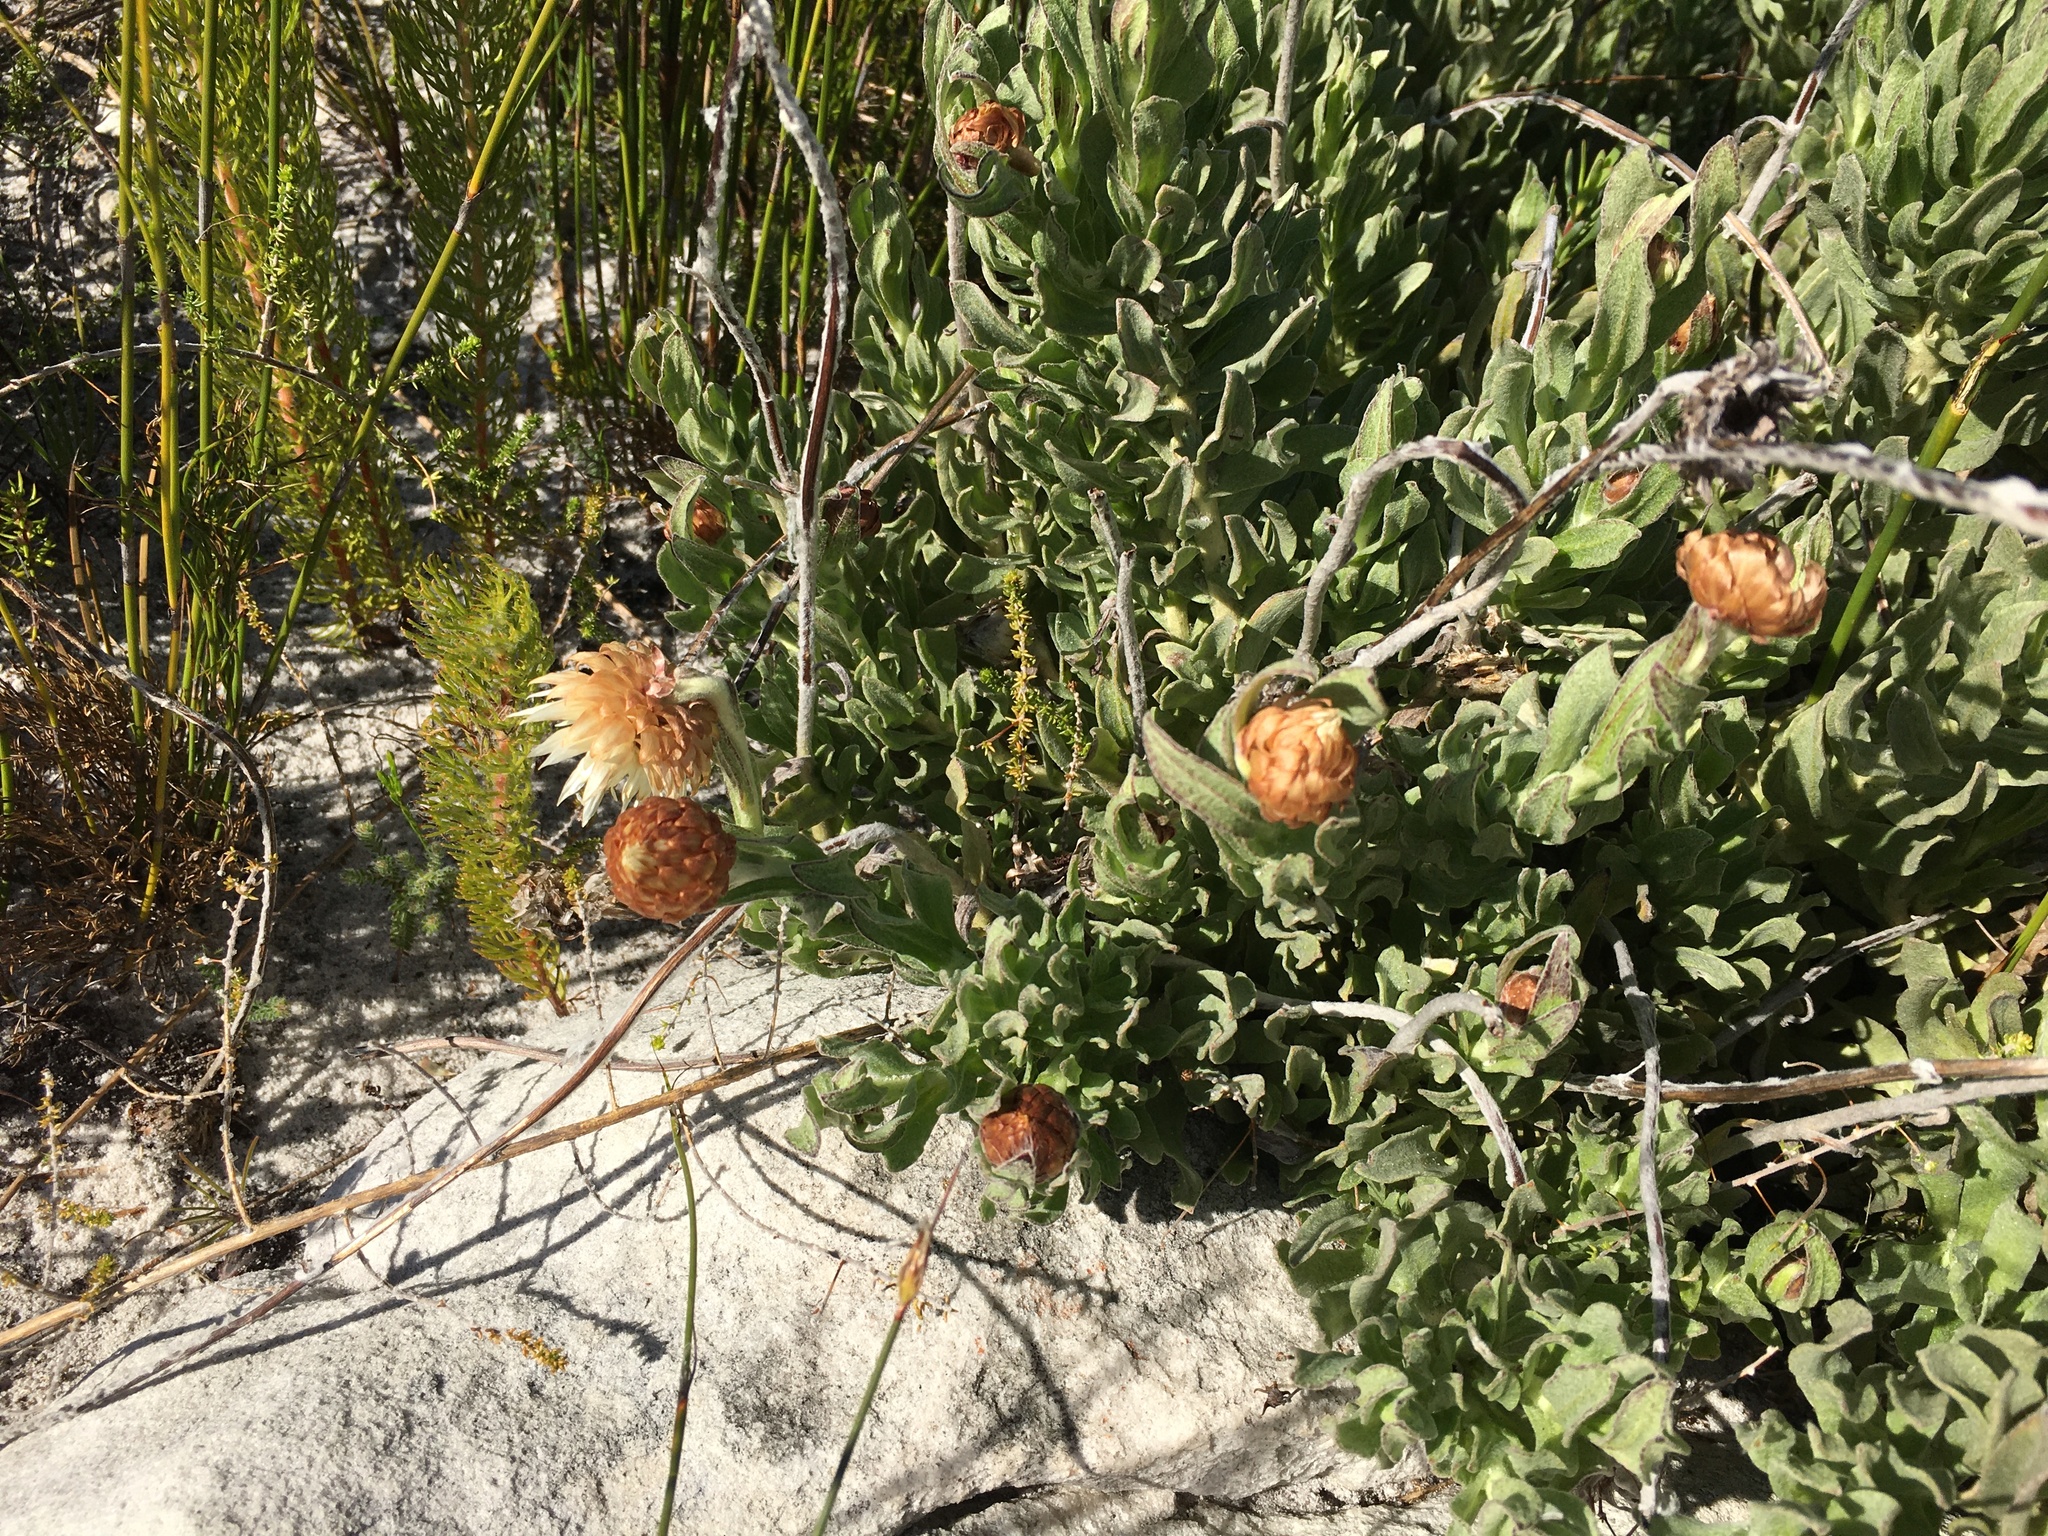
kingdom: Plantae
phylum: Tracheophyta
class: Magnoliopsida
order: Asterales
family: Asteraceae
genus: Syncarpha
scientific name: Syncarpha speciosissima
